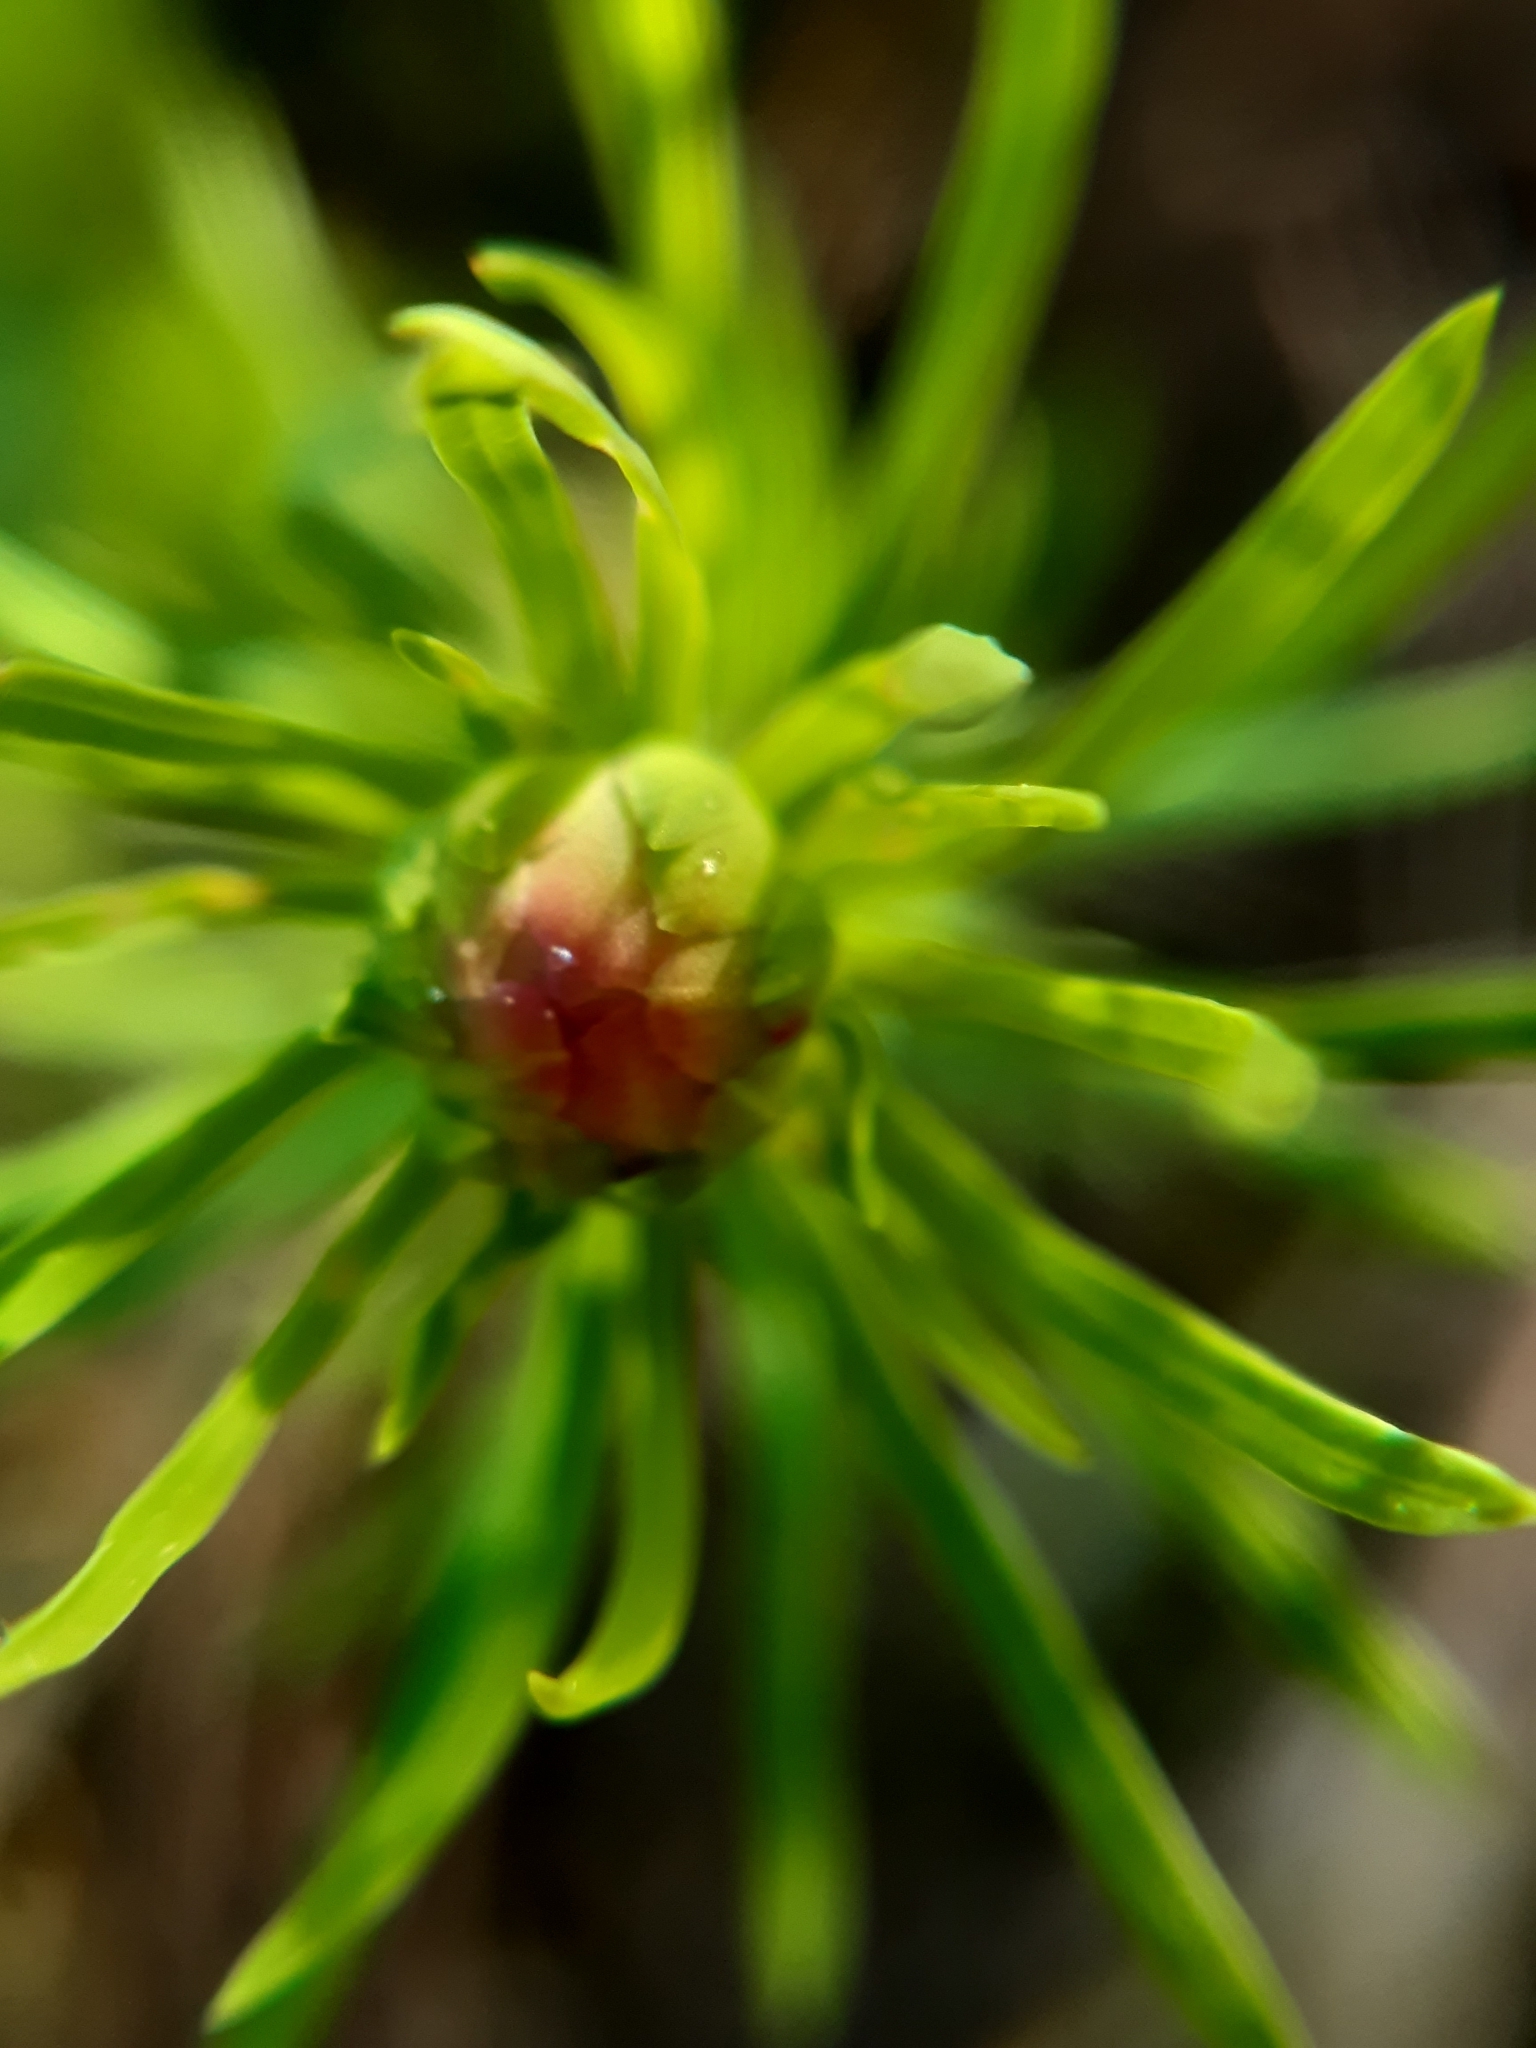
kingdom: Animalia
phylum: Arthropoda
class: Insecta
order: Diptera
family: Cecidomyiidae
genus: Spurgia
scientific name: Spurgia euphorbiae
